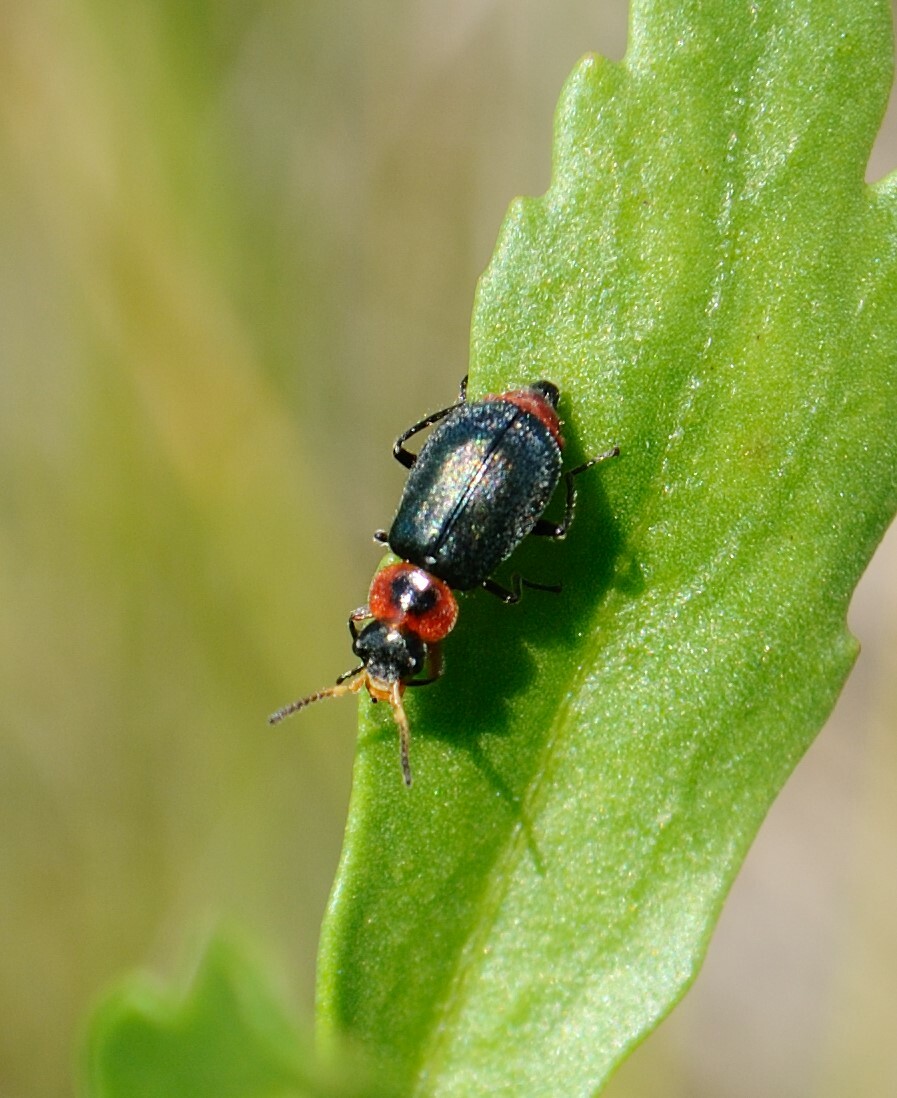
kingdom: Animalia
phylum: Arthropoda
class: Insecta
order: Coleoptera
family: Melyridae
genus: Collops
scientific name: Collops nigriceps
